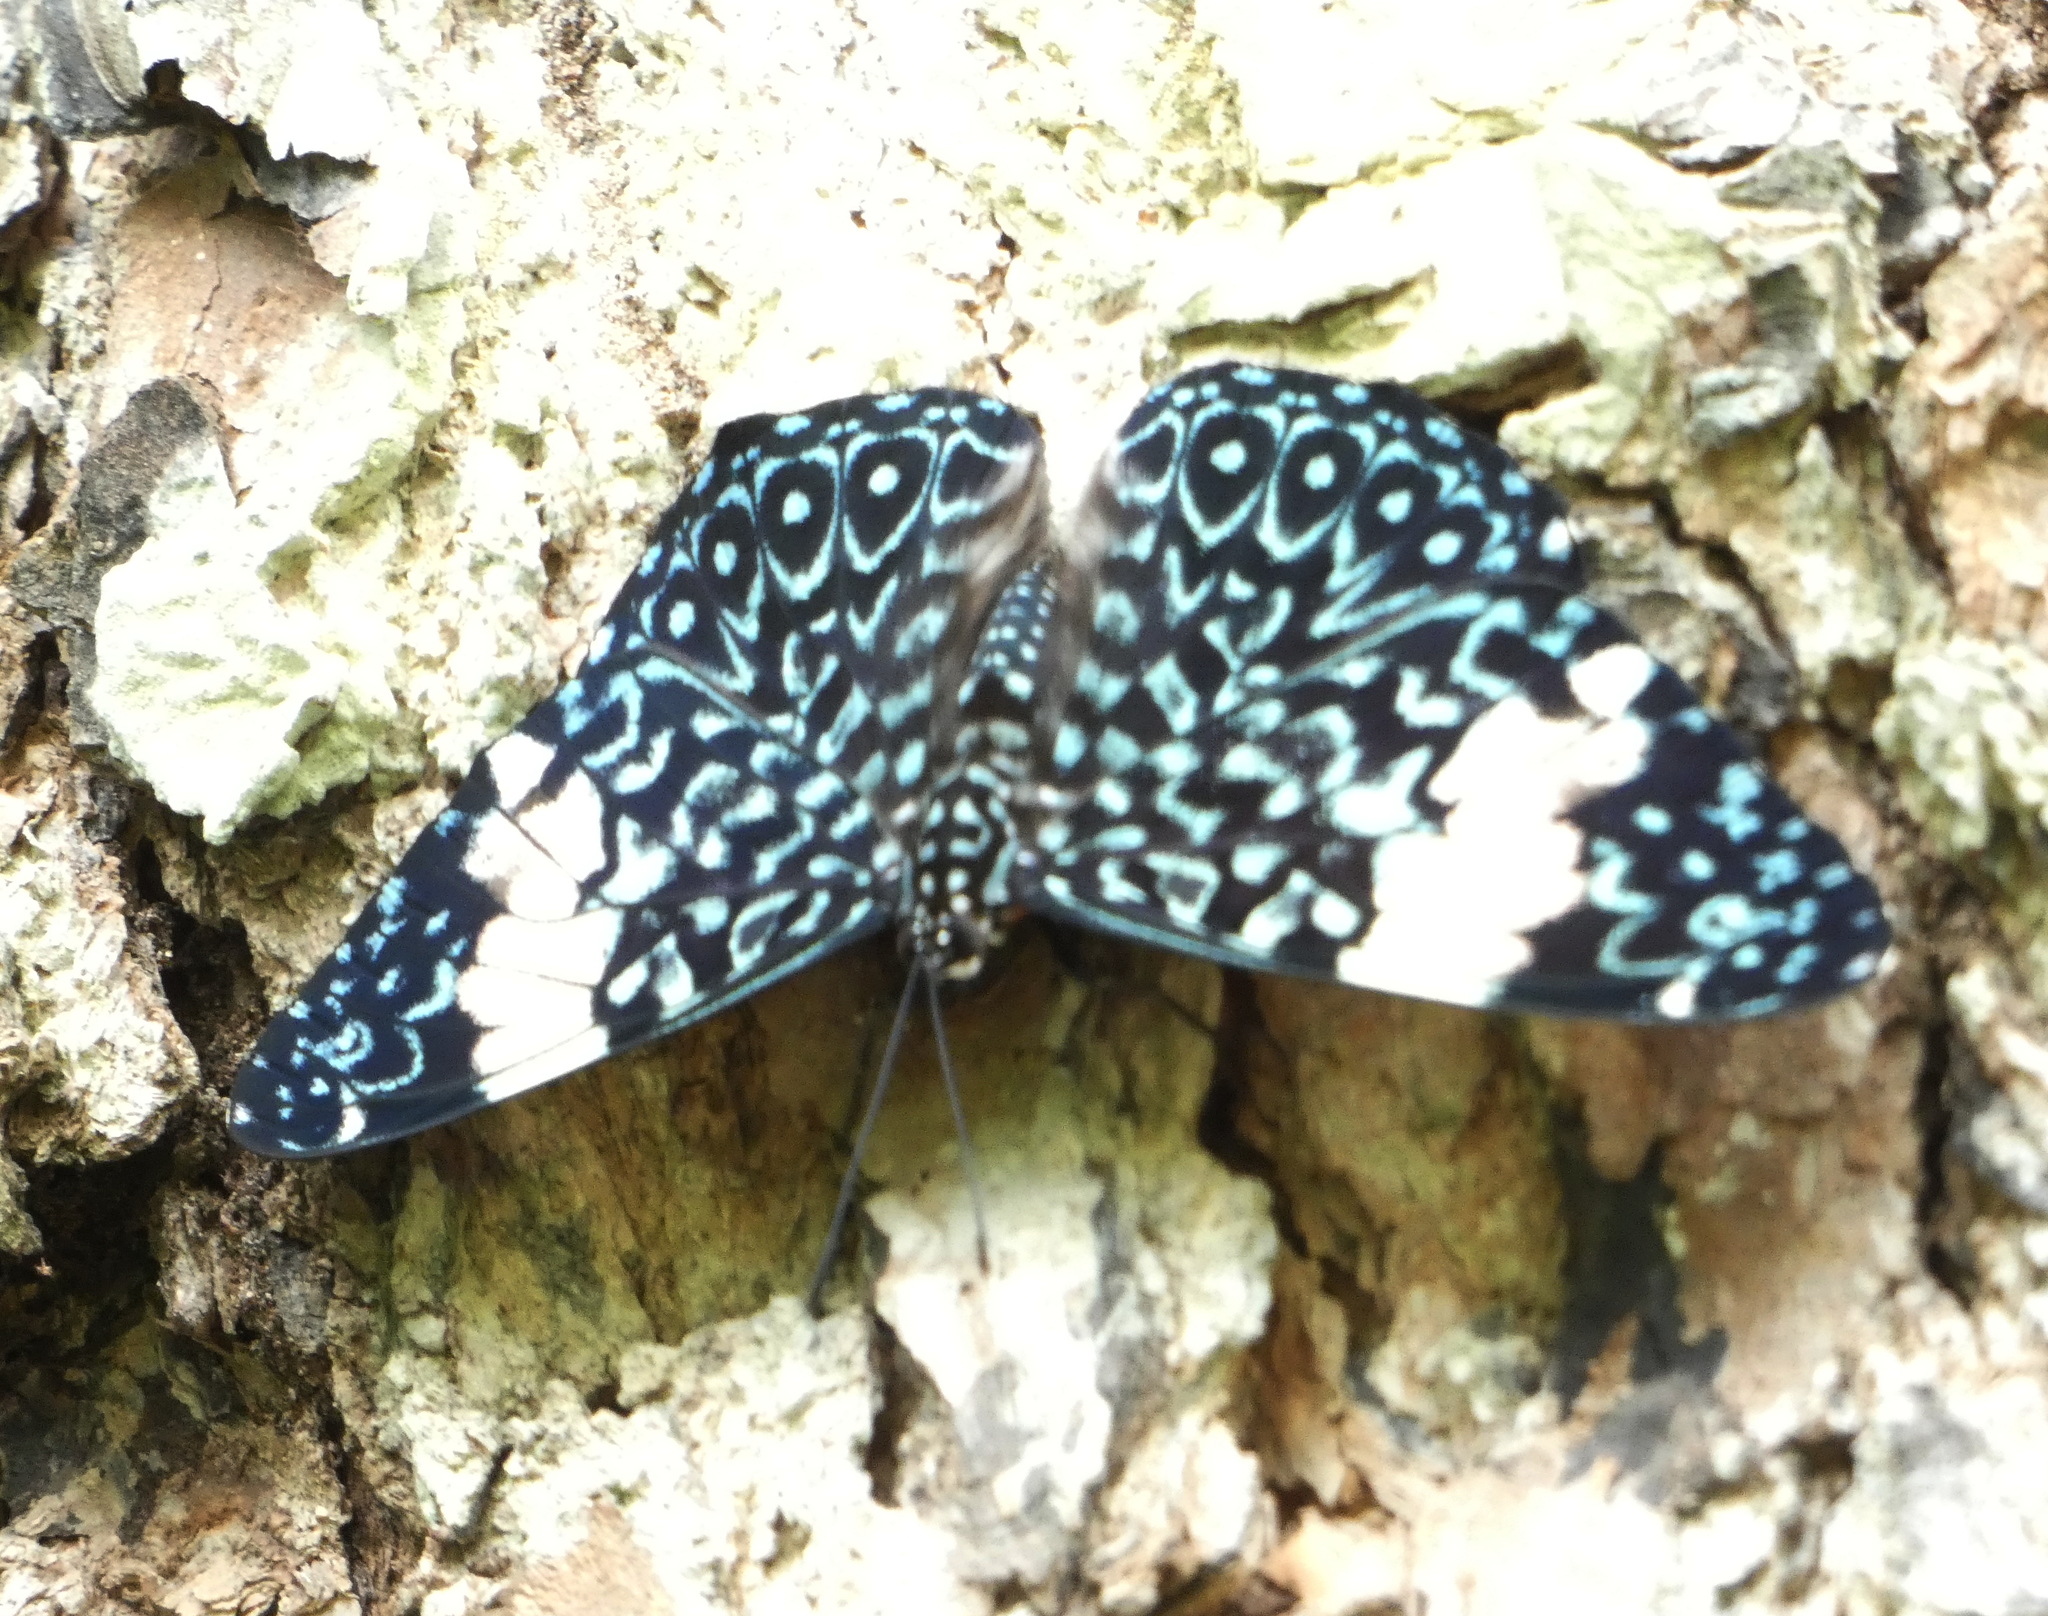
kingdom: Animalia
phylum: Arthropoda
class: Insecta
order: Lepidoptera
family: Nymphalidae
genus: Hamadryas
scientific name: Hamadryas amphinome
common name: Red cracker
